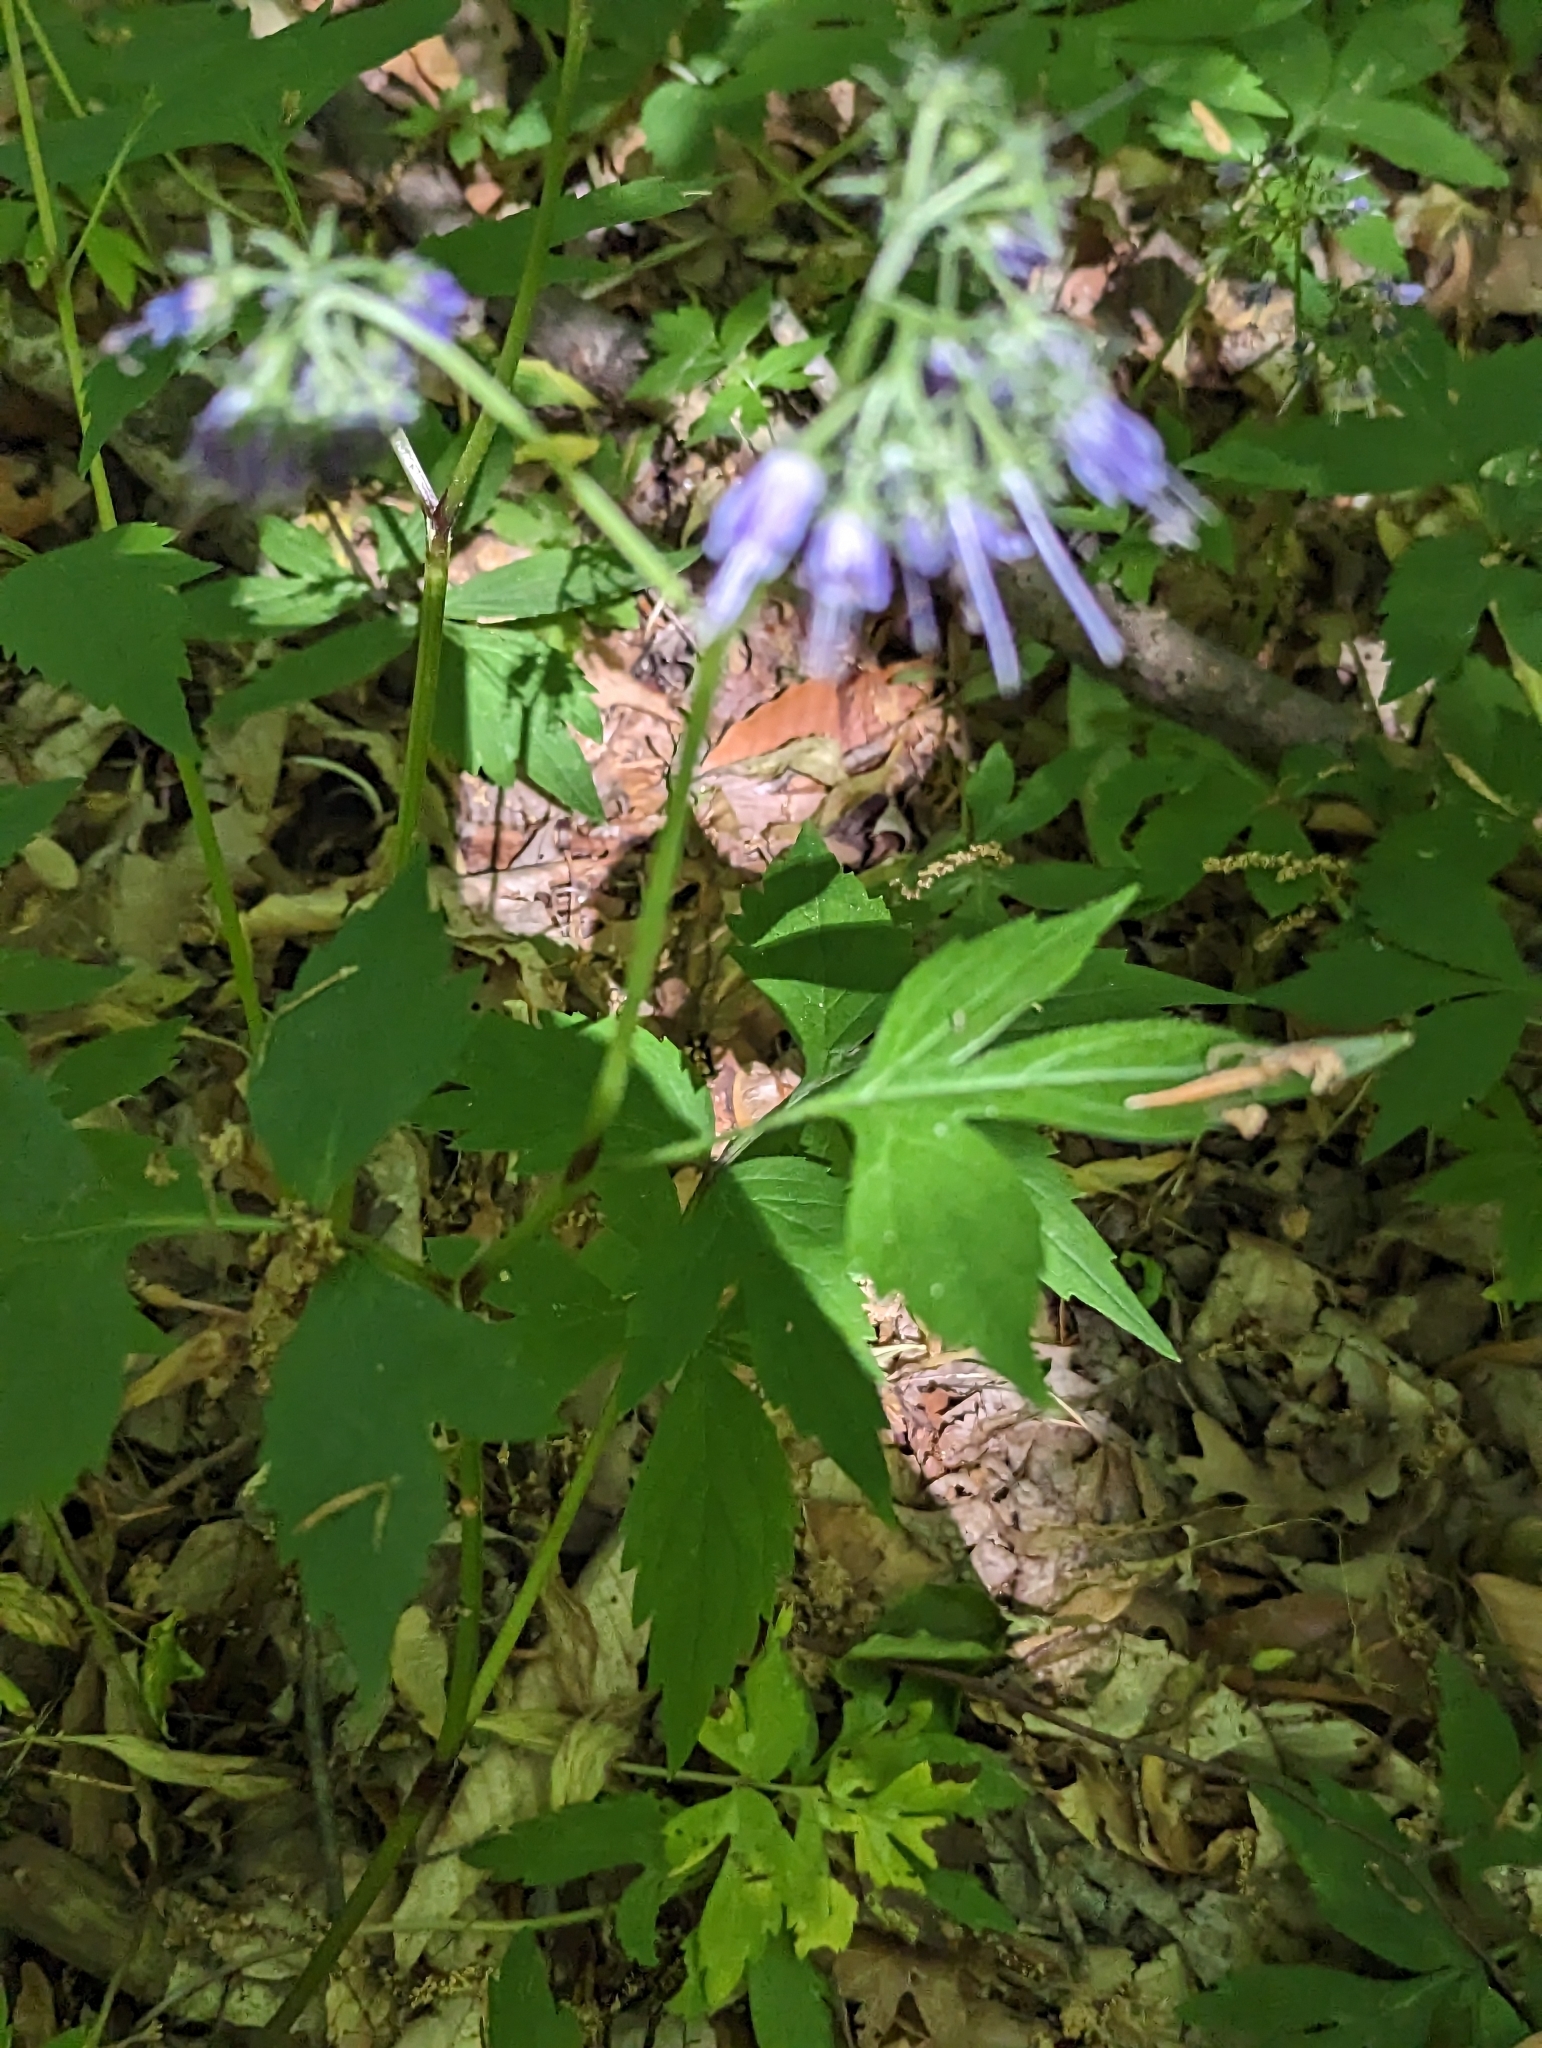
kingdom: Plantae
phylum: Tracheophyta
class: Magnoliopsida
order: Boraginales
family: Hydrophyllaceae
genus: Hydrophyllum
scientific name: Hydrophyllum virginianum
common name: Virginia waterleaf
